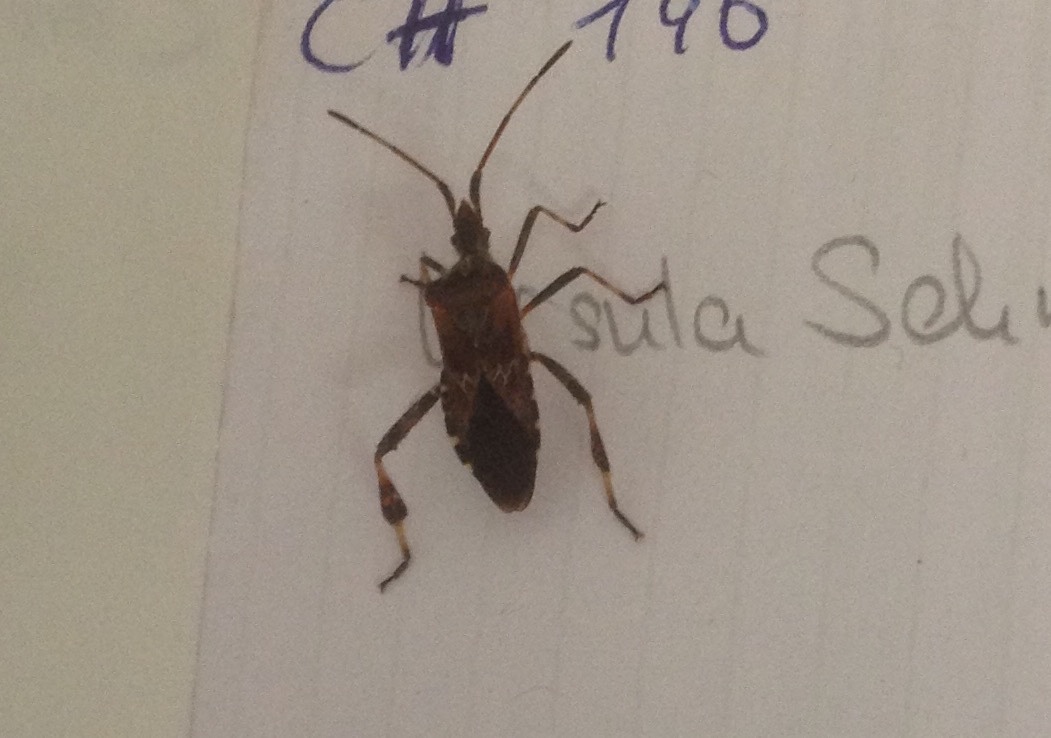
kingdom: Animalia
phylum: Arthropoda
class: Insecta
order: Hemiptera
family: Coreidae
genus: Leptoglossus
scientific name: Leptoglossus occidentalis
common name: Western conifer-seed bug
